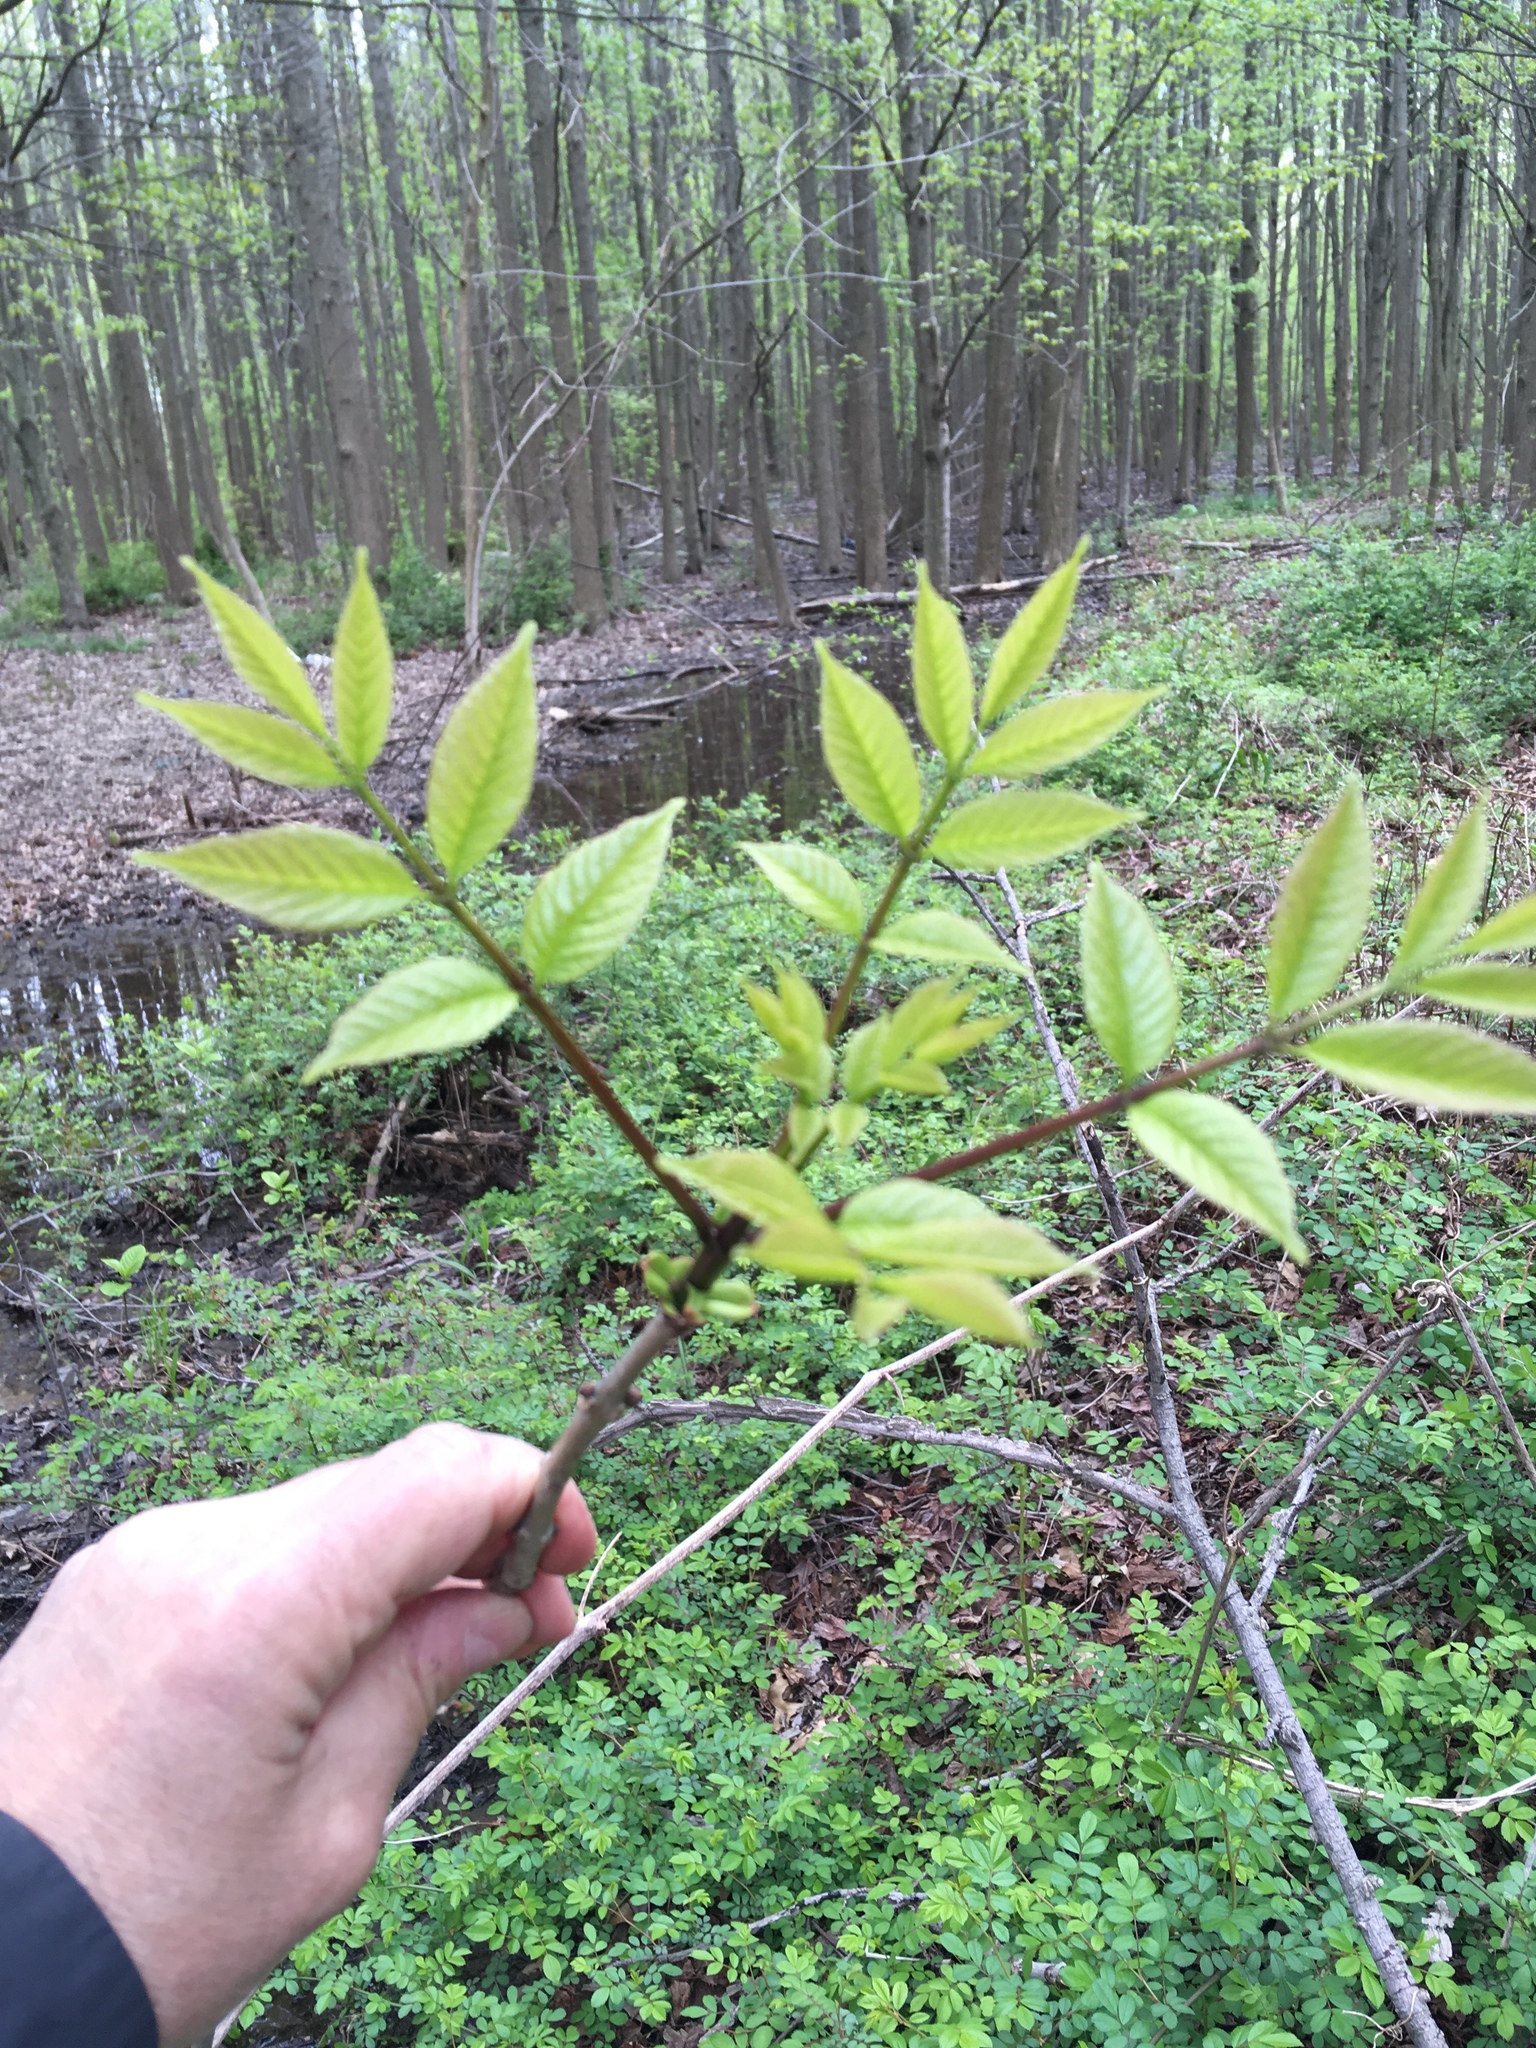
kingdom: Plantae
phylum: Tracheophyta
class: Magnoliopsida
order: Lamiales
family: Oleaceae
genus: Fraxinus
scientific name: Fraxinus pennsylvanica
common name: Green ash
